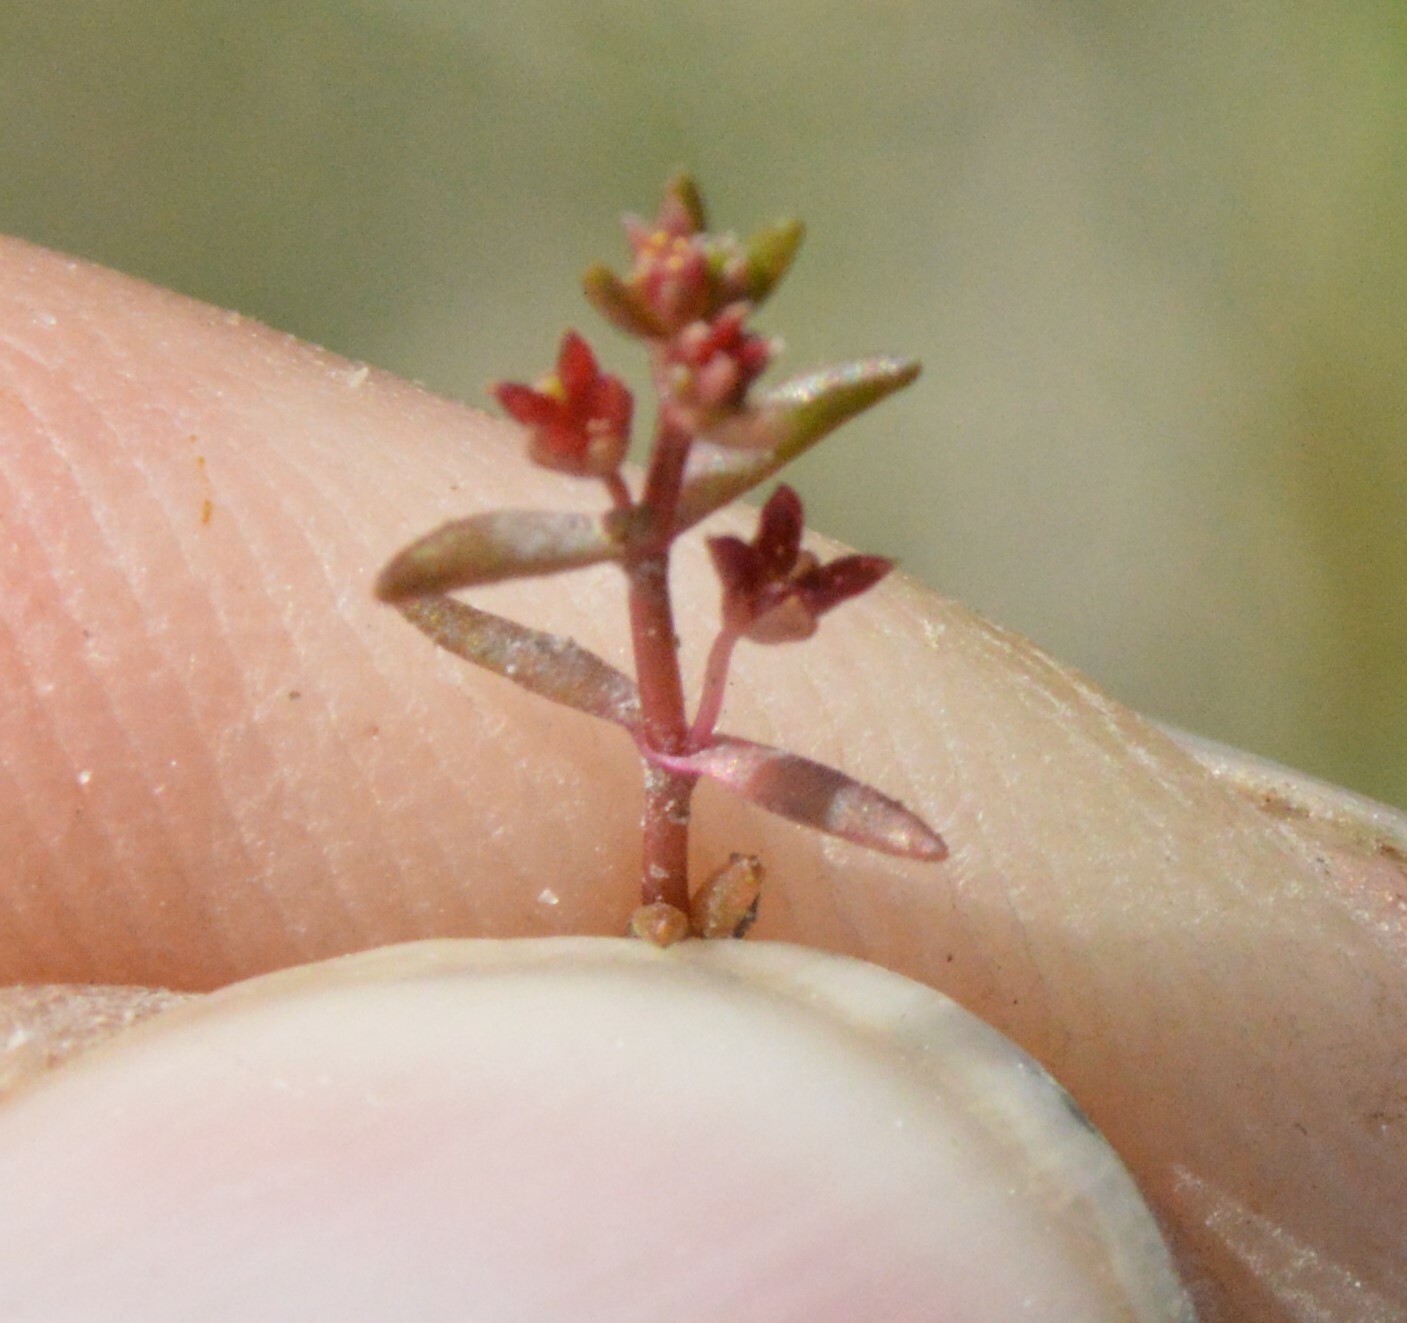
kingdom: Plantae
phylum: Tracheophyta
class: Magnoliopsida
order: Saxifragales
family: Crassulaceae
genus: Crassula
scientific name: Crassula aquatica
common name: Pigmyweed
